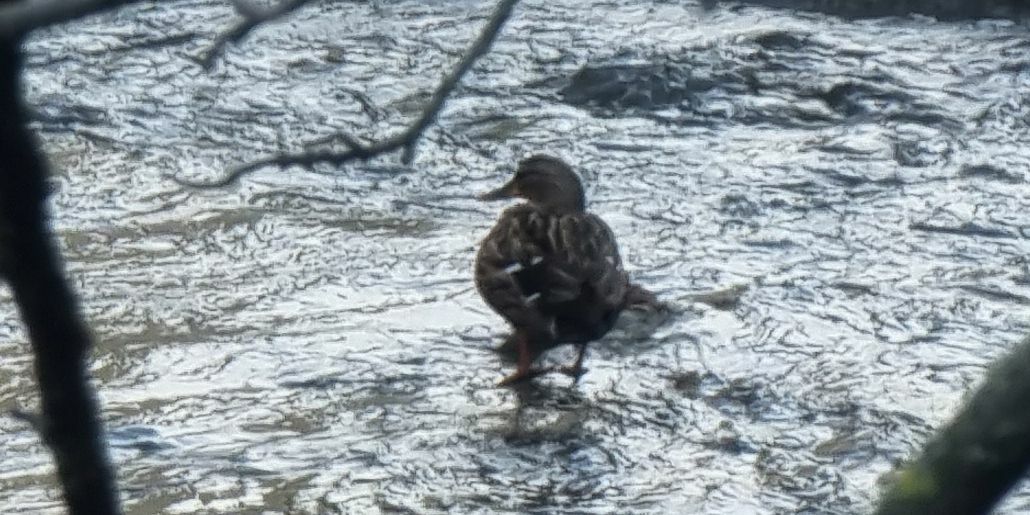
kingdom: Animalia
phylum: Chordata
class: Aves
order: Anseriformes
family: Anatidae
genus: Anas
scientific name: Anas platyrhynchos
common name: Mallard
